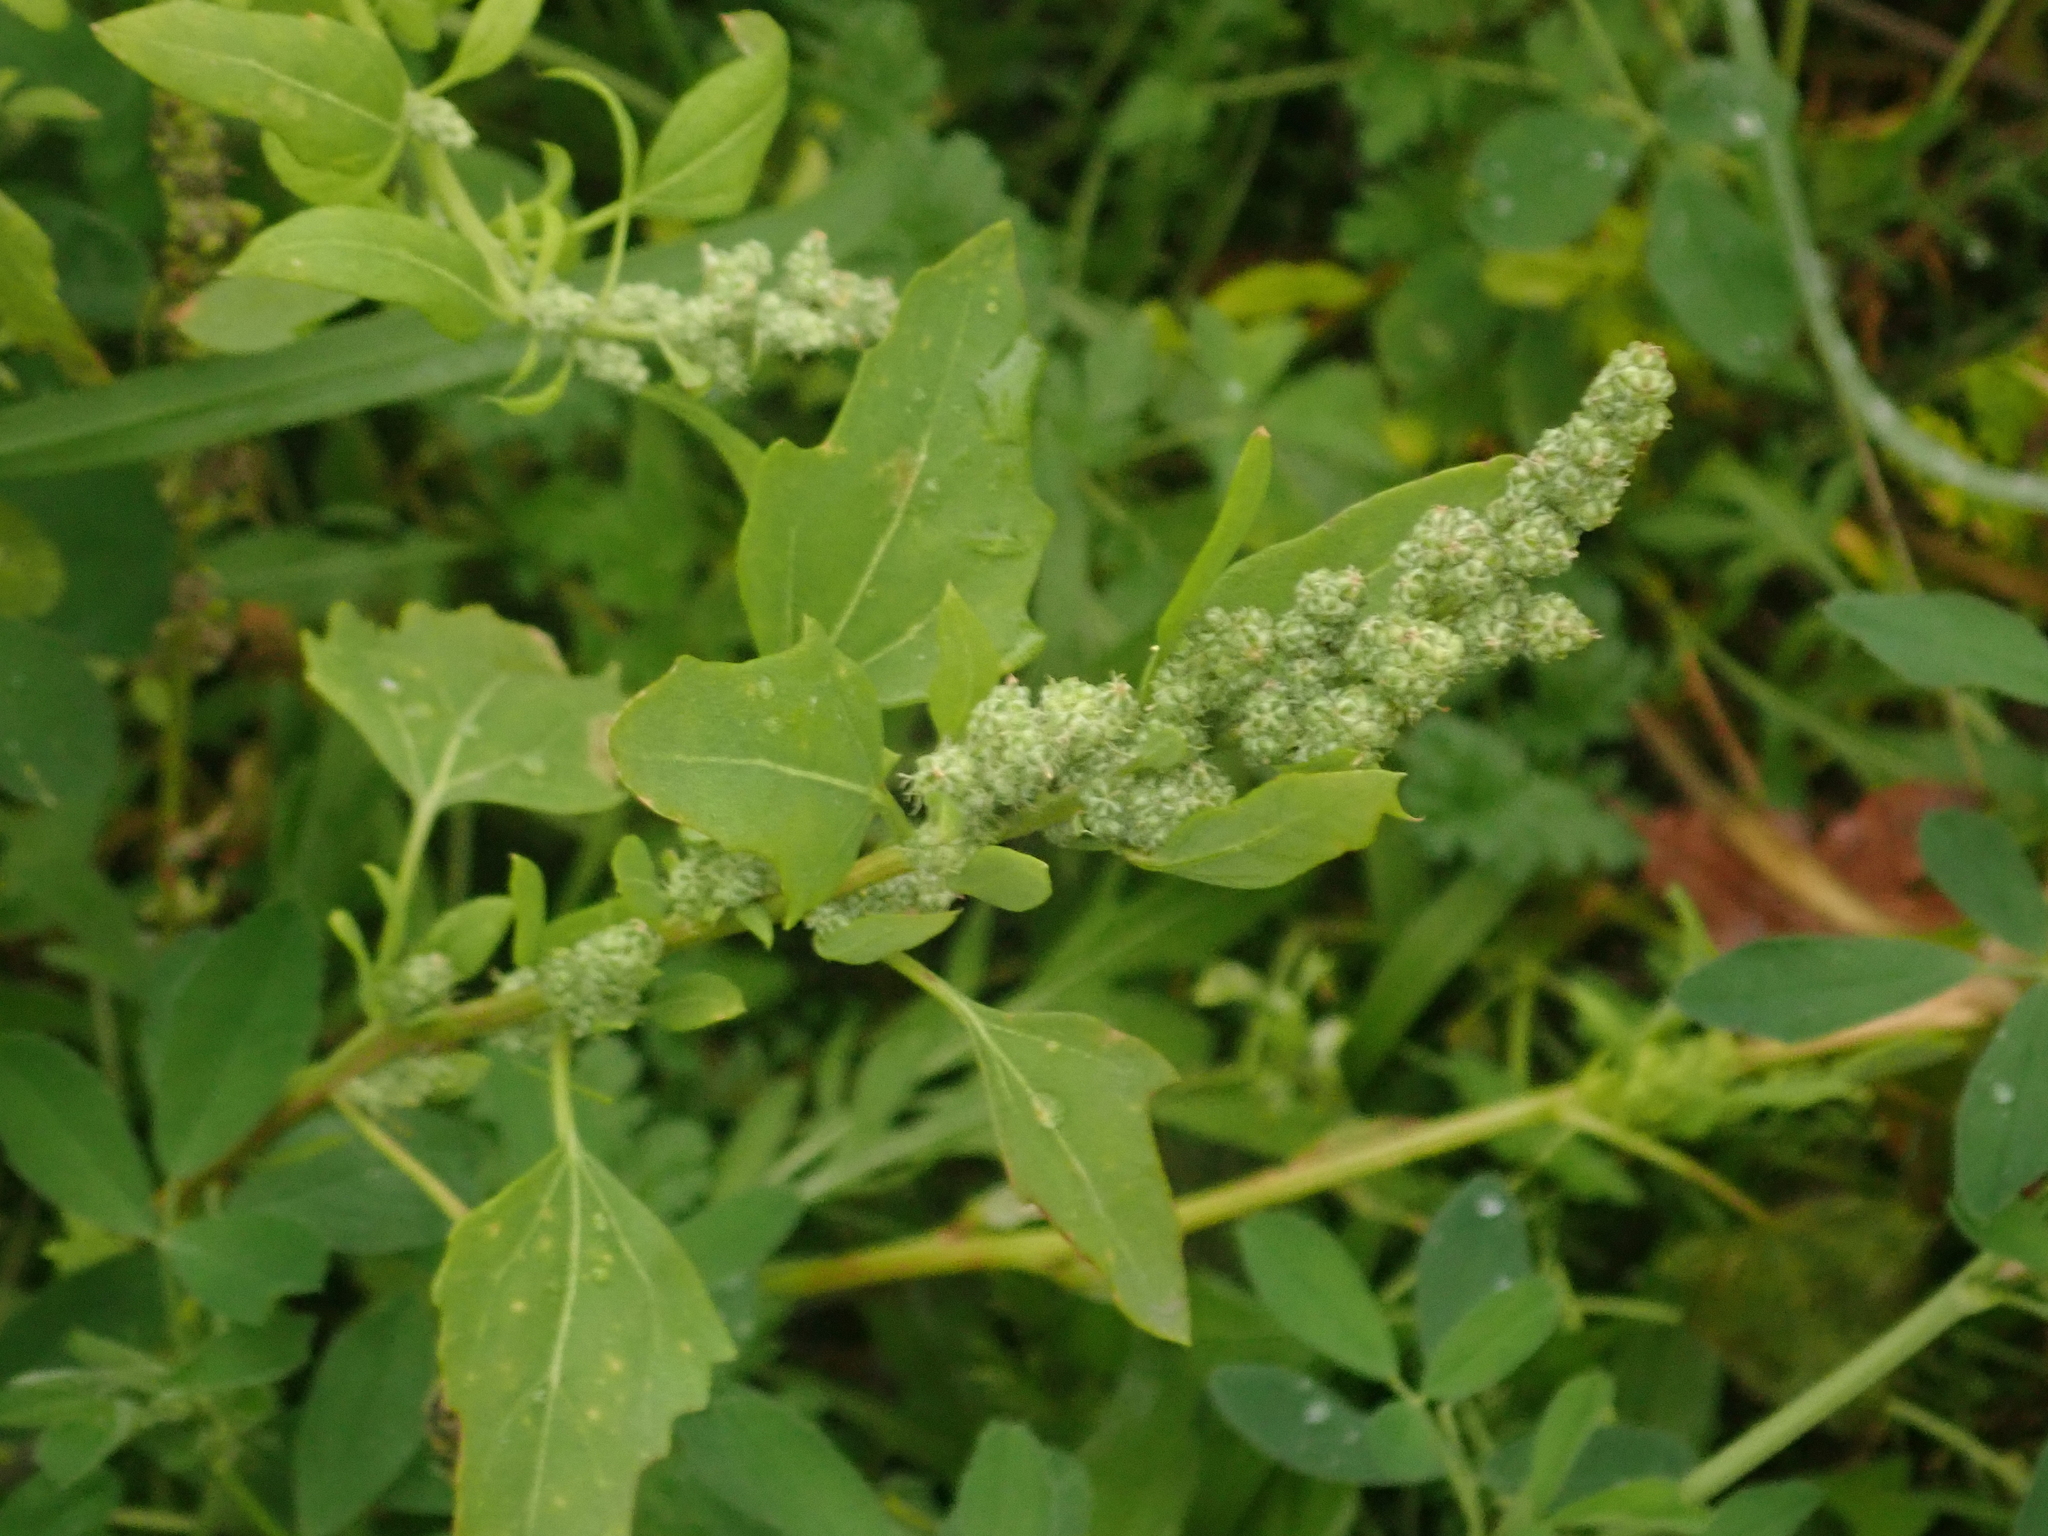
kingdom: Plantae
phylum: Tracheophyta
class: Magnoliopsida
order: Caryophyllales
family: Amaranthaceae
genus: Chenopodium
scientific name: Chenopodium album
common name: Fat-hen
